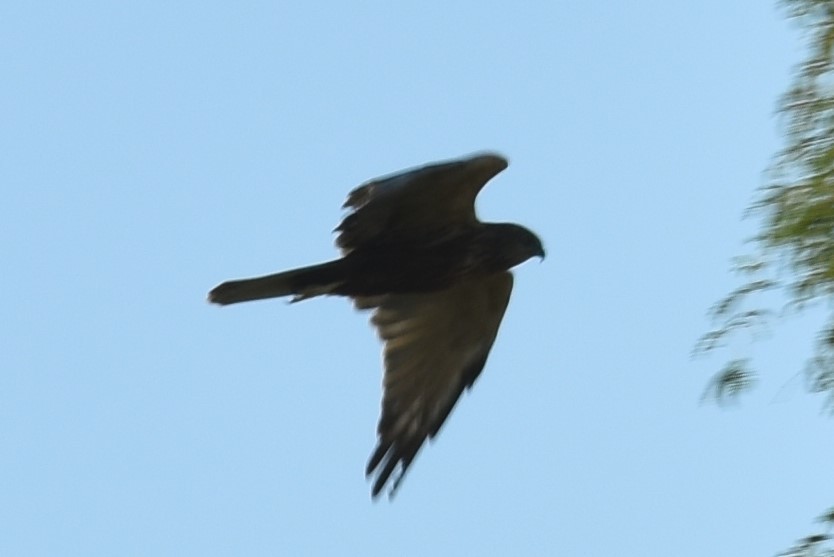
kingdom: Animalia
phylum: Chordata
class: Aves
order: Accipitriformes
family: Accipitridae
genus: Circus
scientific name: Circus aeruginosus
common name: Western marsh harrier
